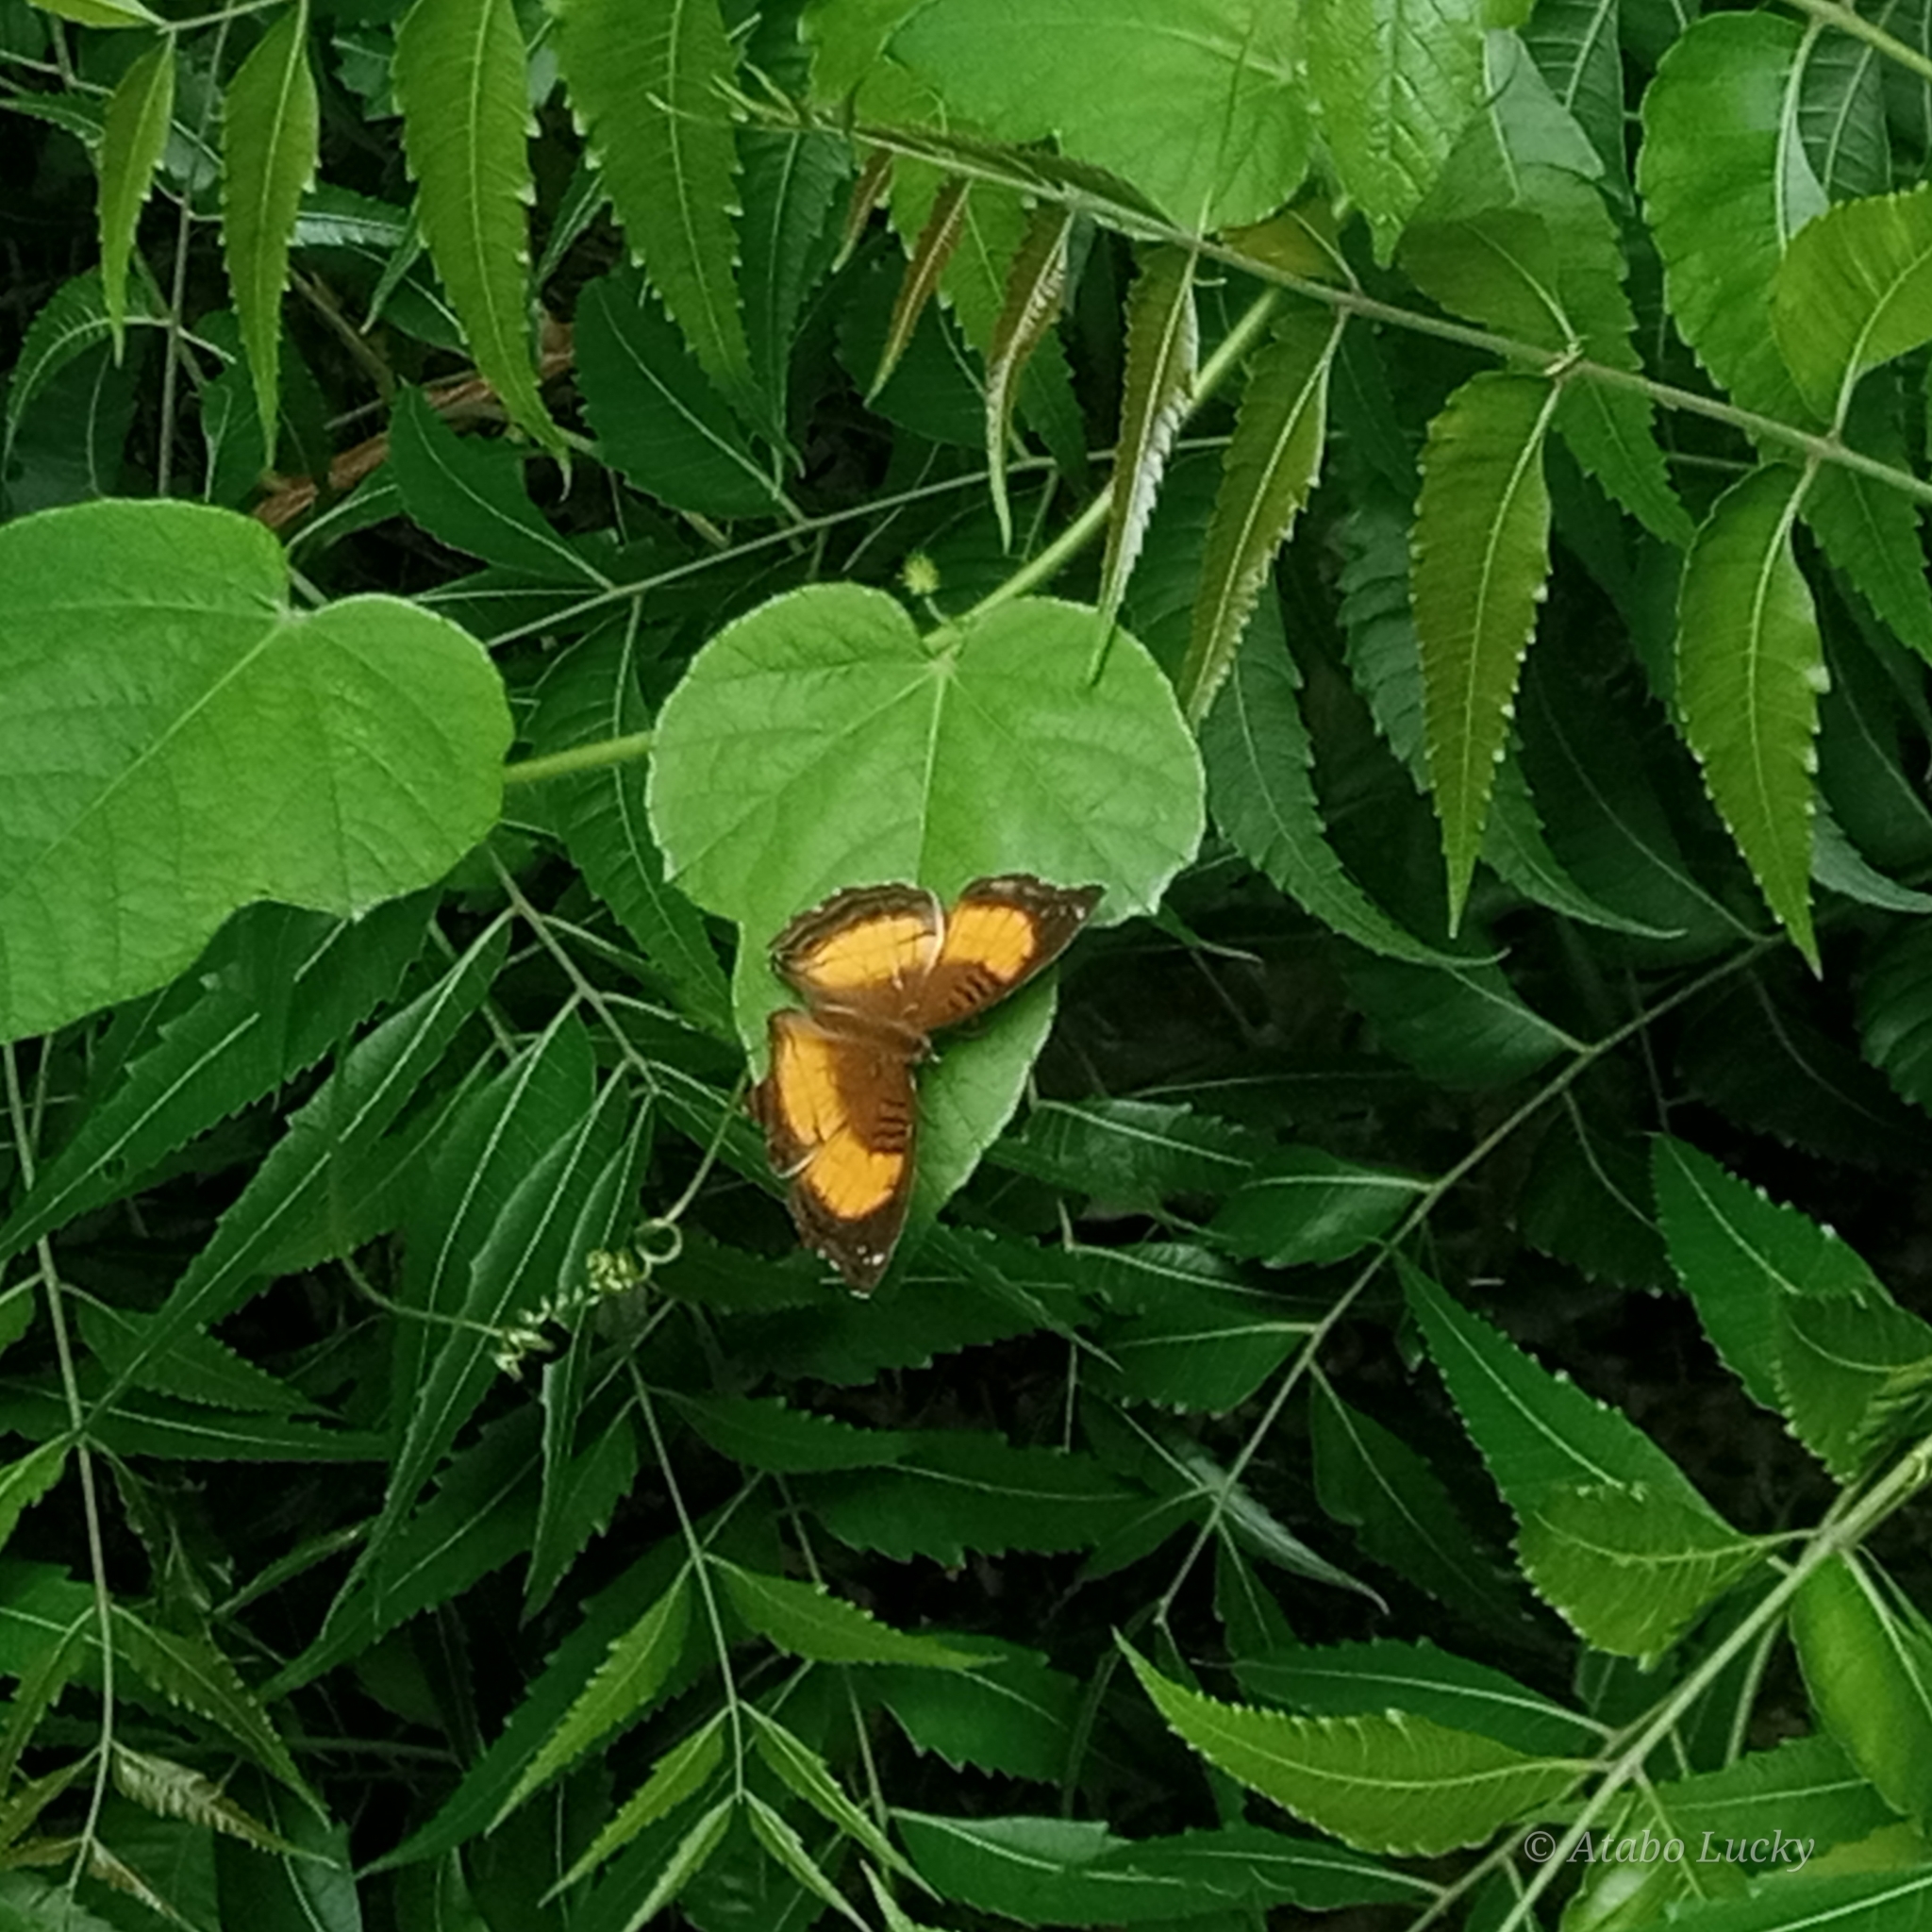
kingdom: Animalia
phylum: Arthropoda
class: Insecta
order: Lepidoptera
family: Nymphalidae
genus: Junonia
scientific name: Junonia terea
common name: Soldier pansy
